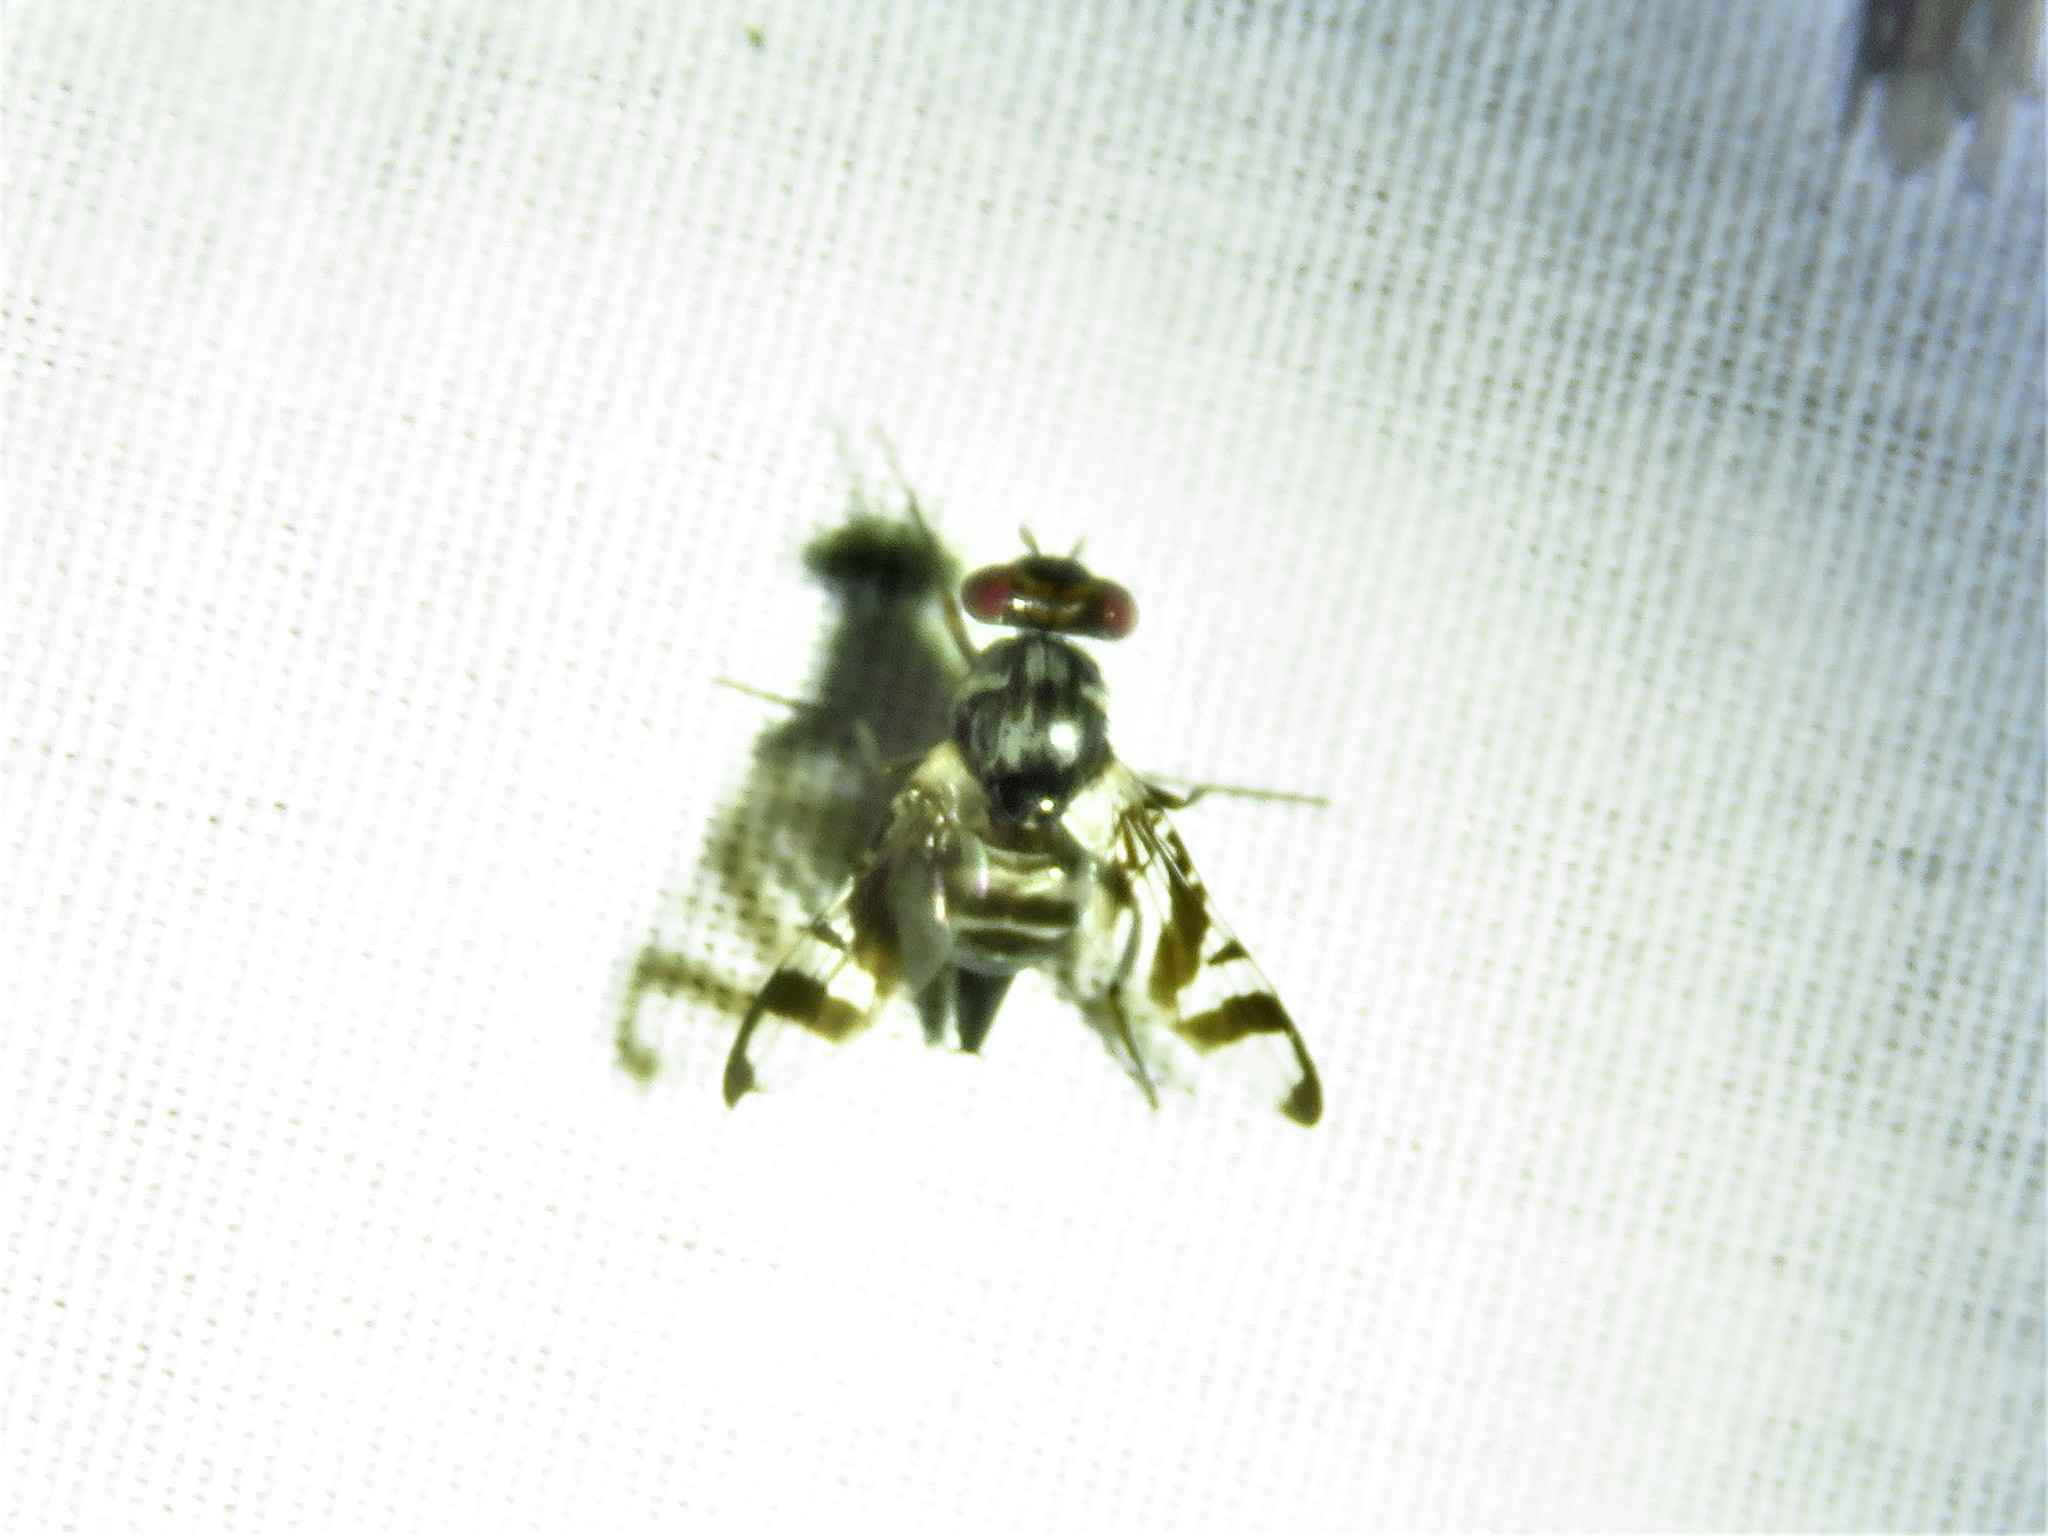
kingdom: Animalia
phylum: Arthropoda
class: Insecta
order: Diptera
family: Ulidiidae
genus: Plagiocephalus
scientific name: Plagiocephalus latifrons
